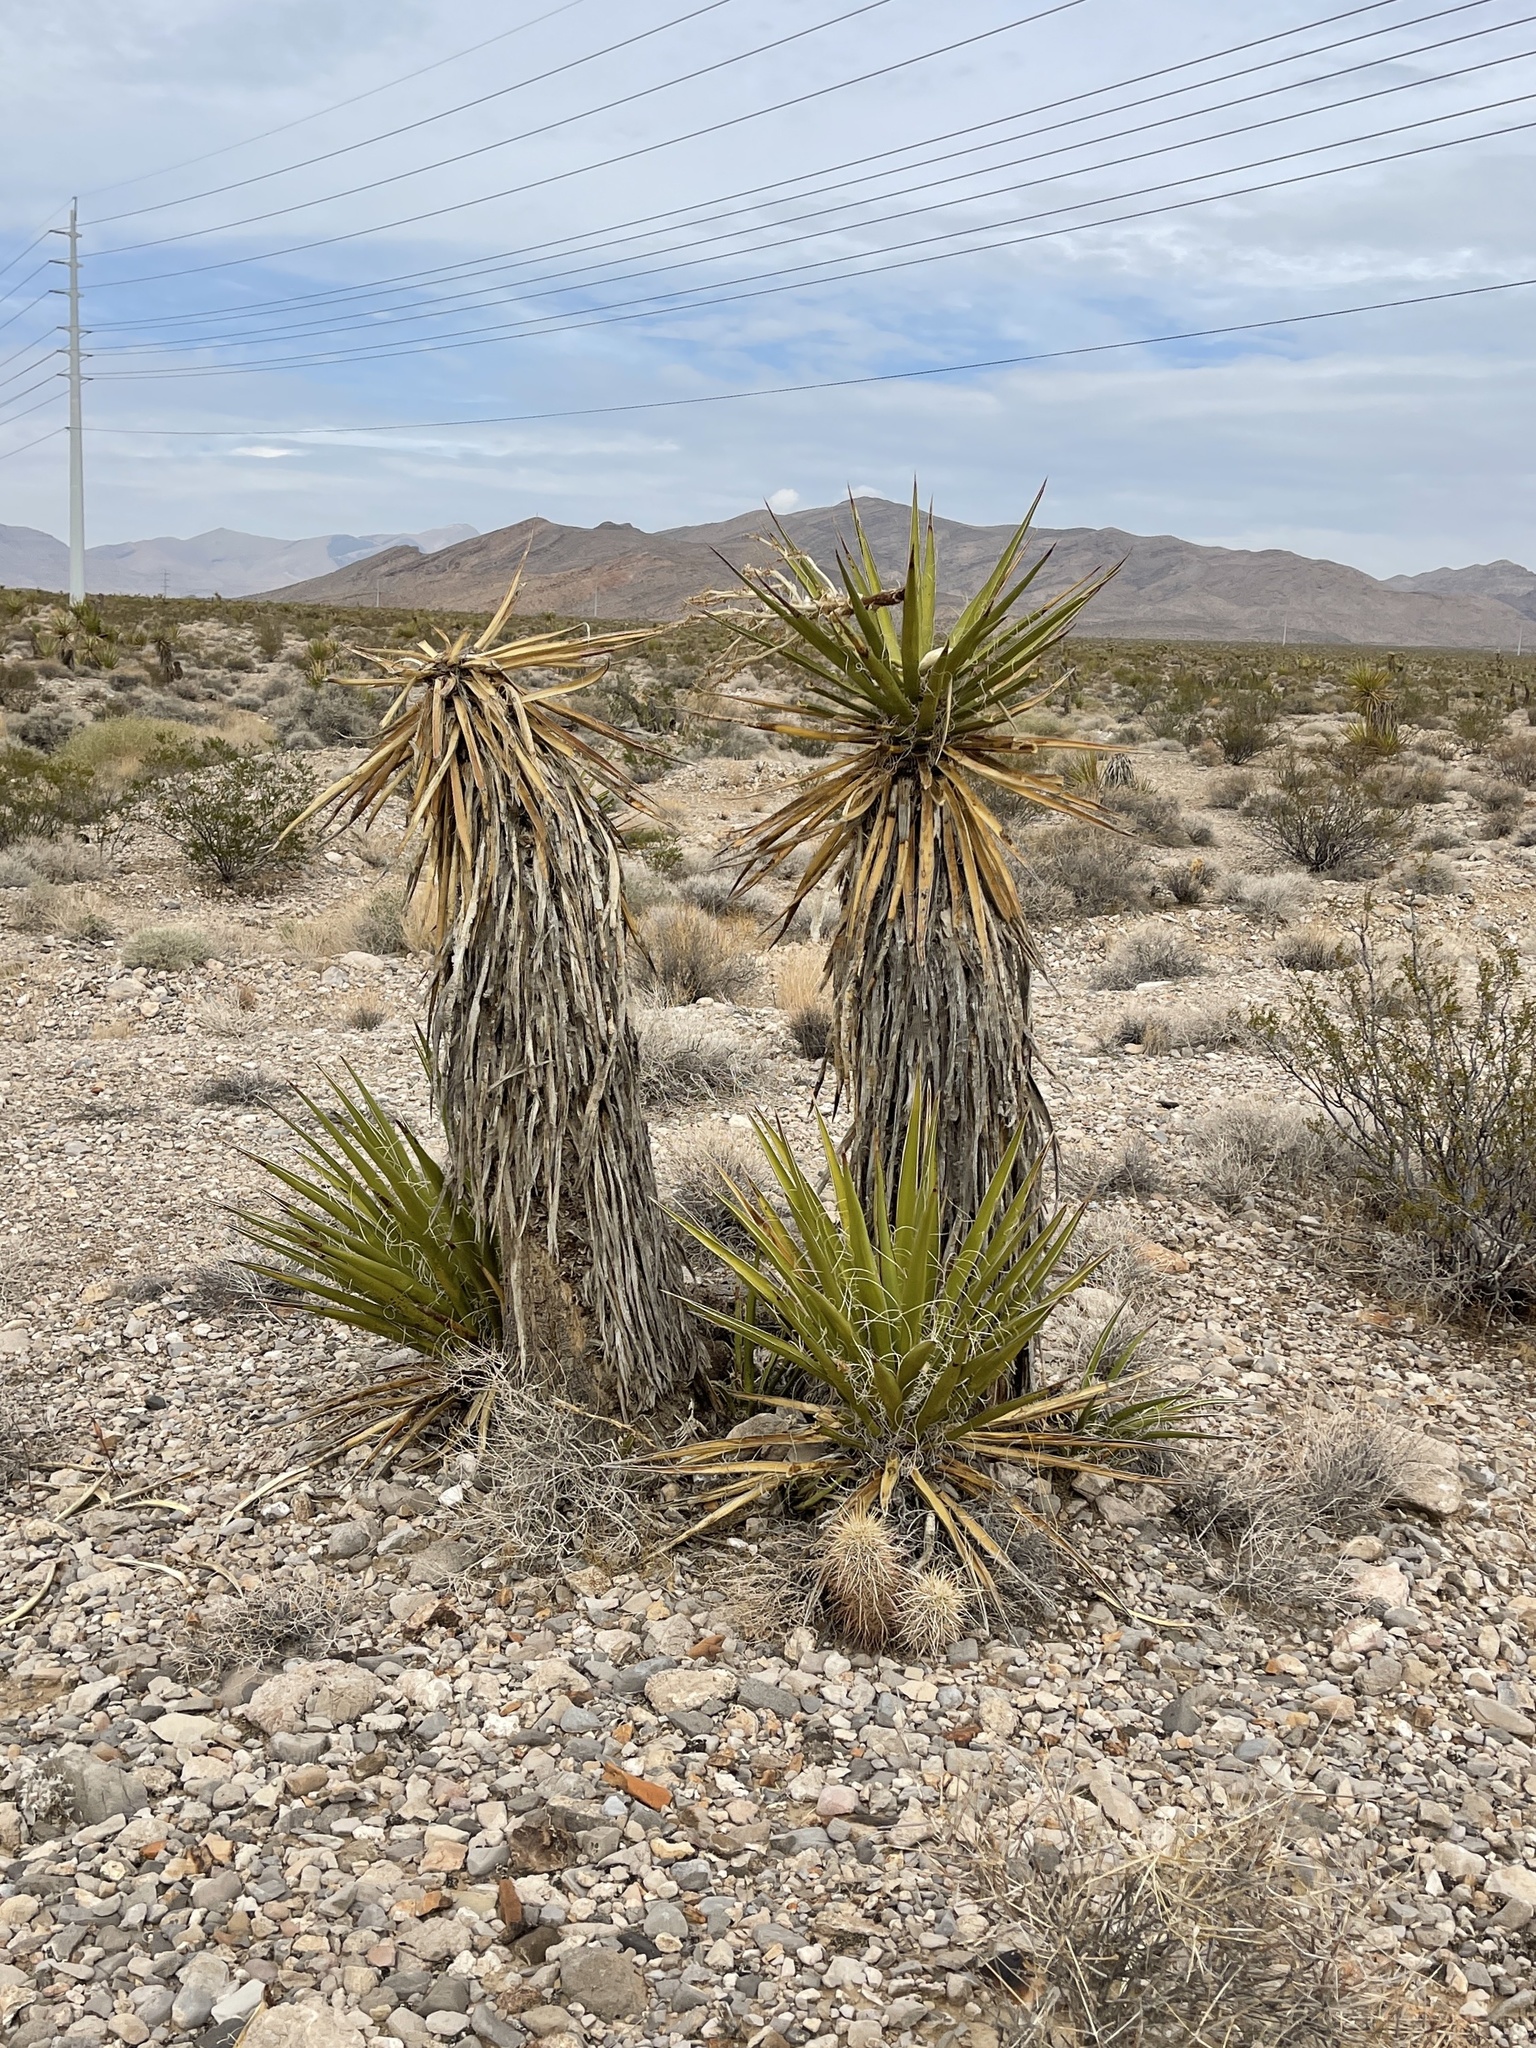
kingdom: Plantae
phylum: Tracheophyta
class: Liliopsida
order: Asparagales
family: Asparagaceae
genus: Yucca
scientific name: Yucca schidigera
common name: Mojave yucca
